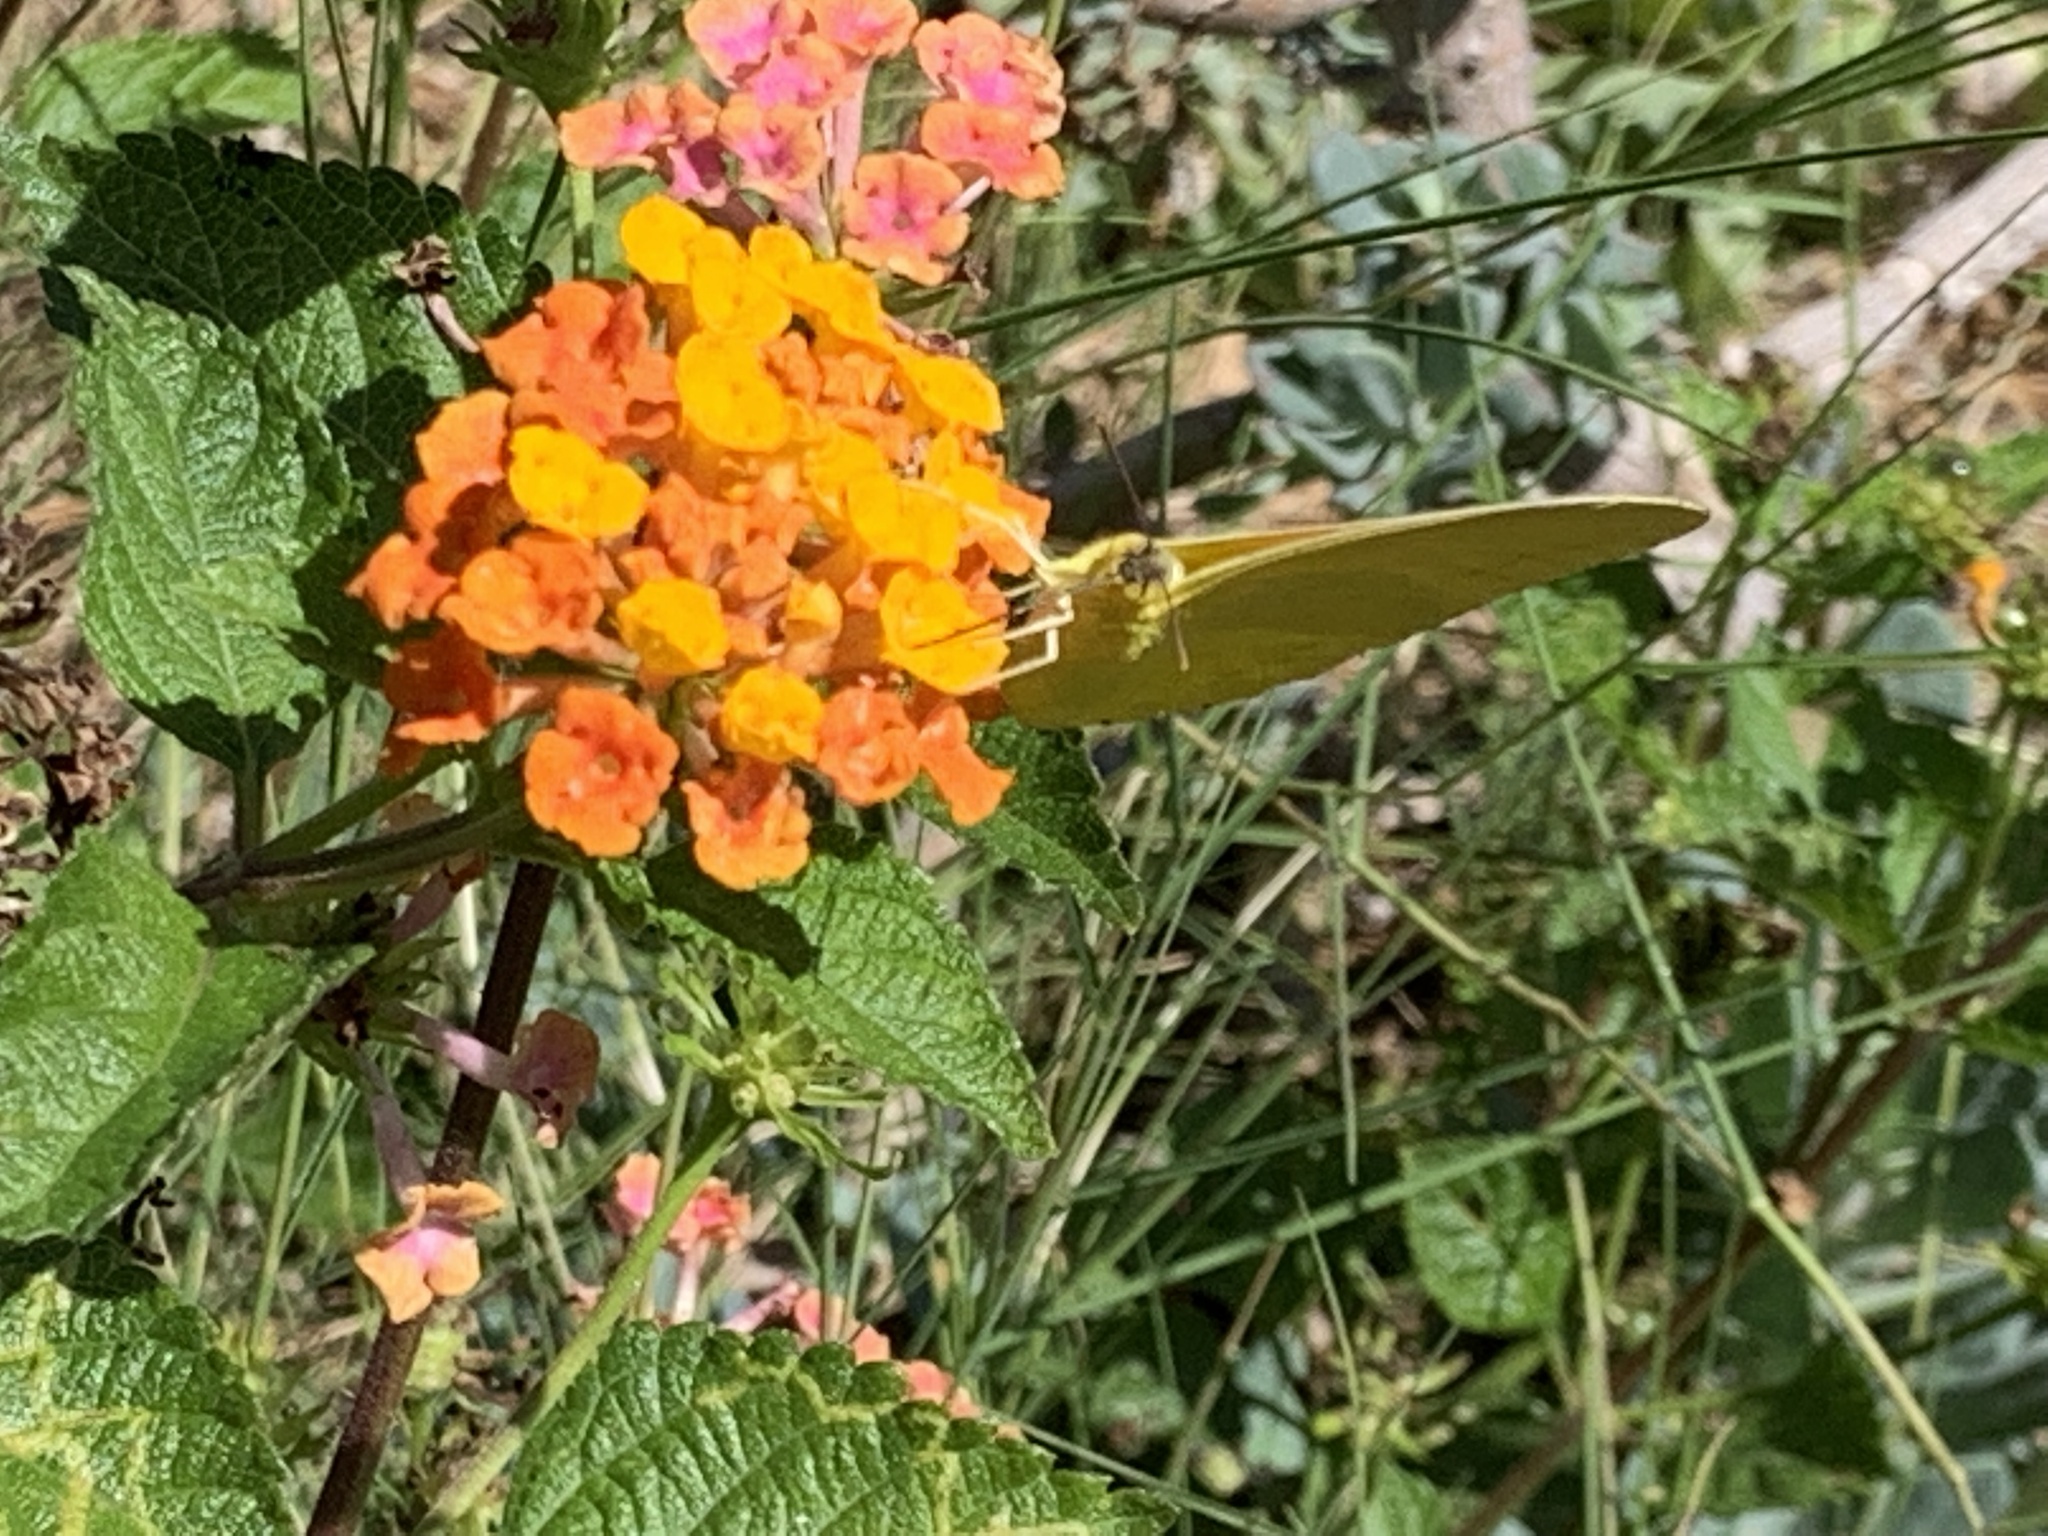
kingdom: Animalia
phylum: Arthropoda
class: Insecta
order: Lepidoptera
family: Pieridae
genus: Phoebis
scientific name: Phoebis agarithe
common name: Large orange sulphur
